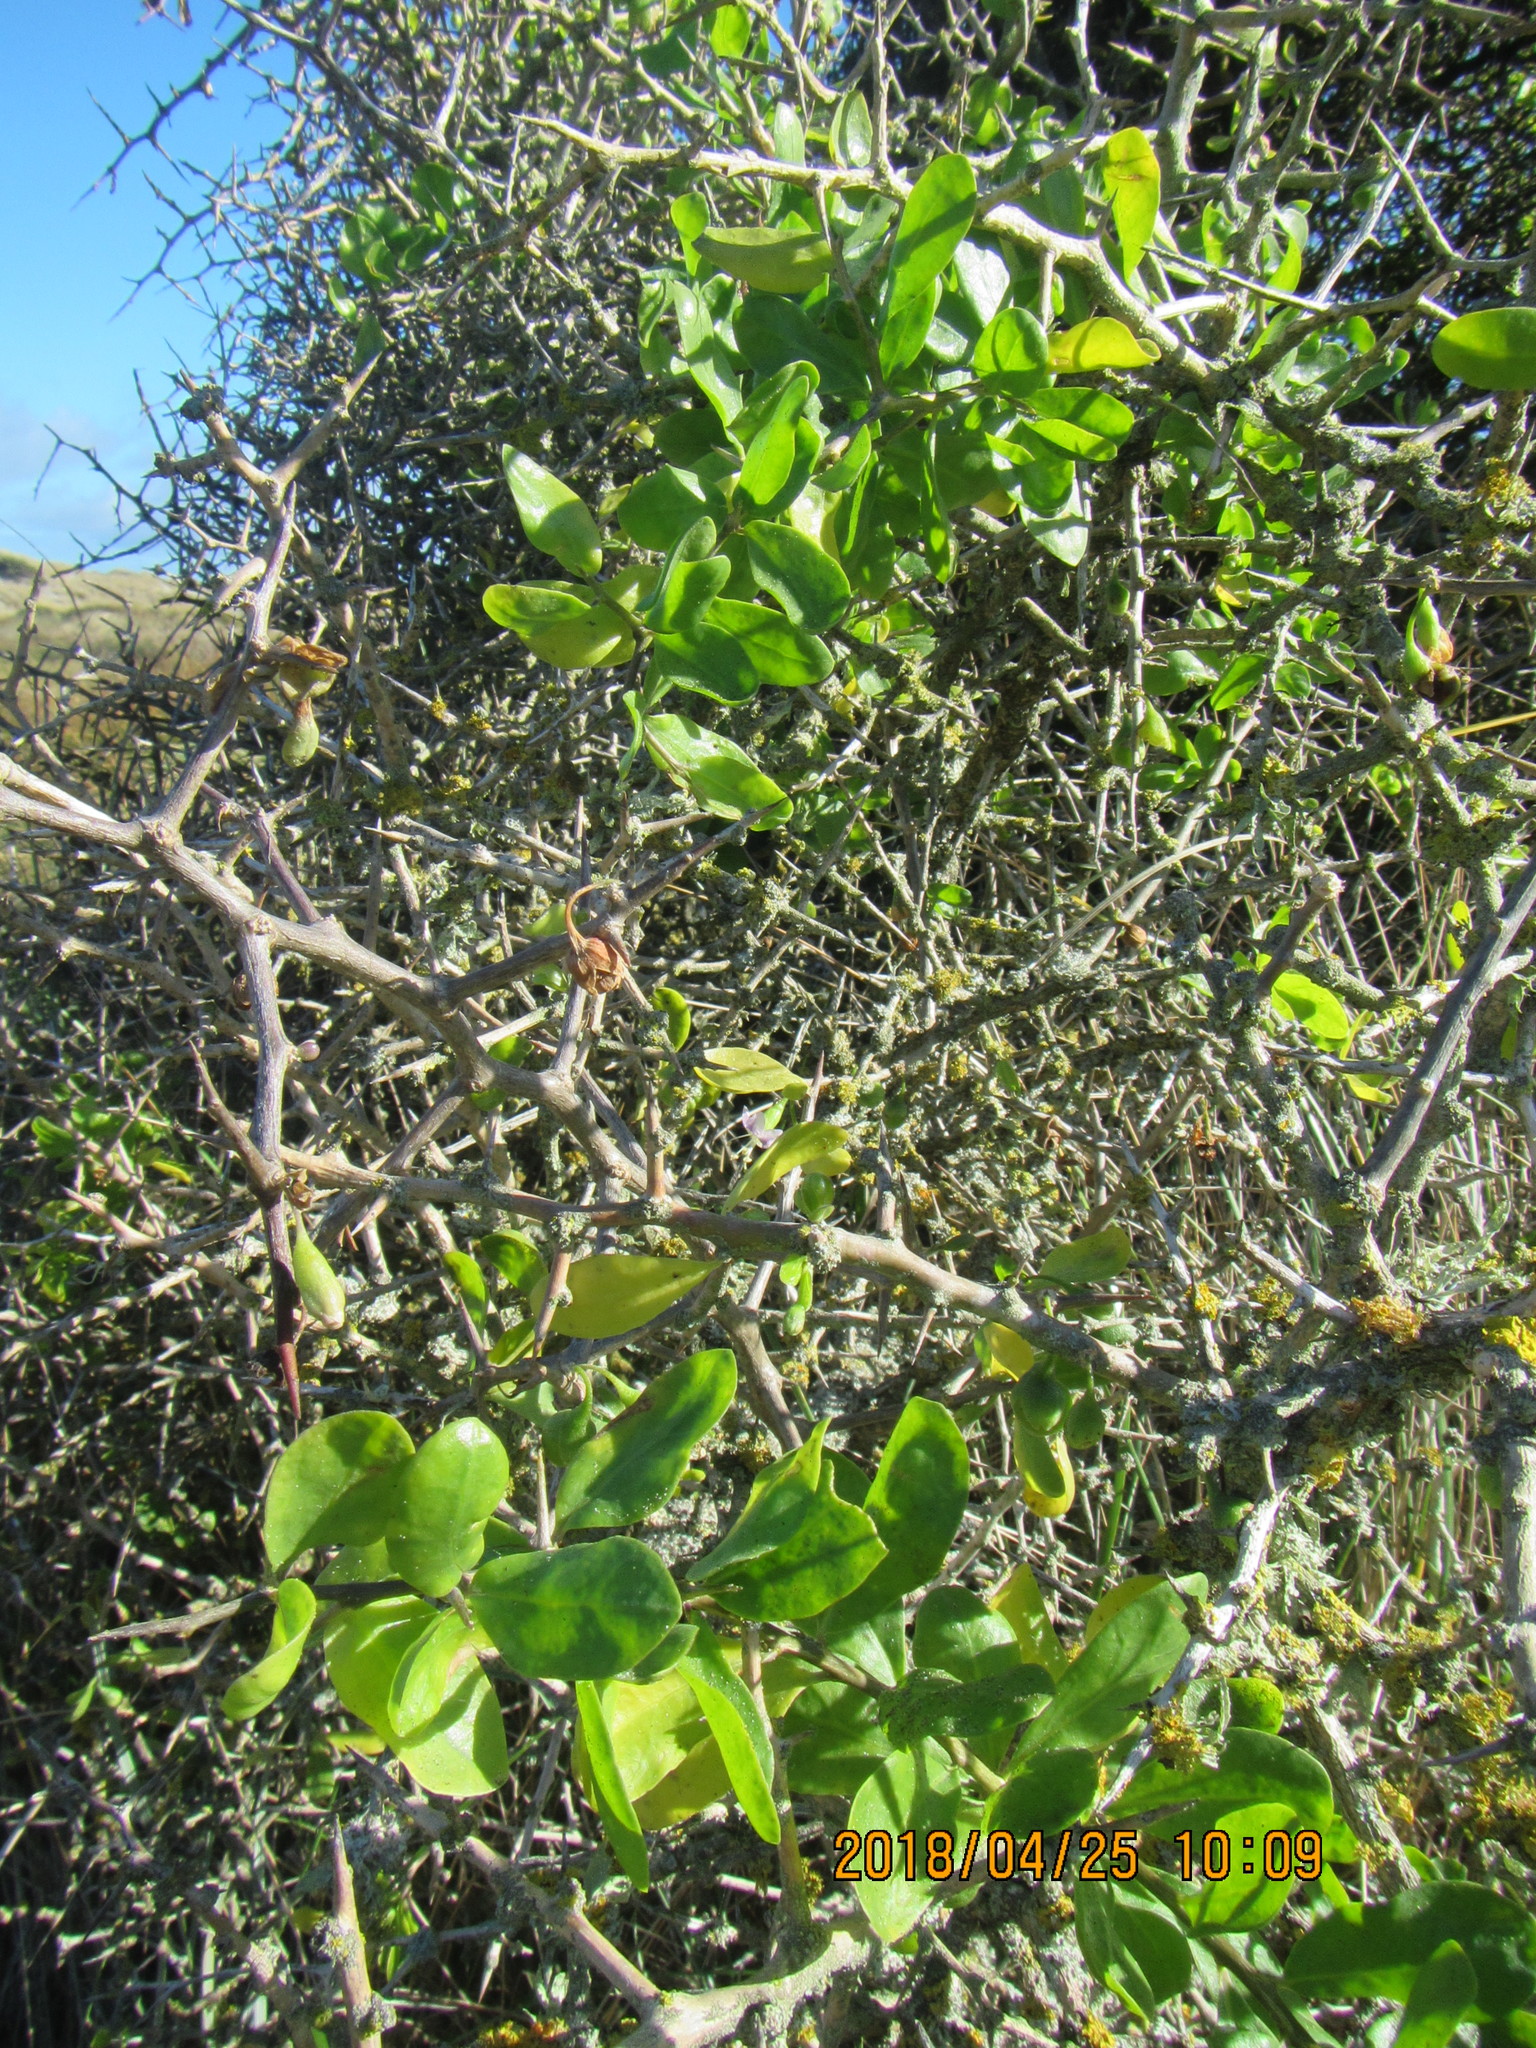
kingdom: Plantae
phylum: Tracheophyta
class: Magnoliopsida
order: Solanales
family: Solanaceae
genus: Lycium
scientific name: Lycium ferocissimum
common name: African boxthorn
